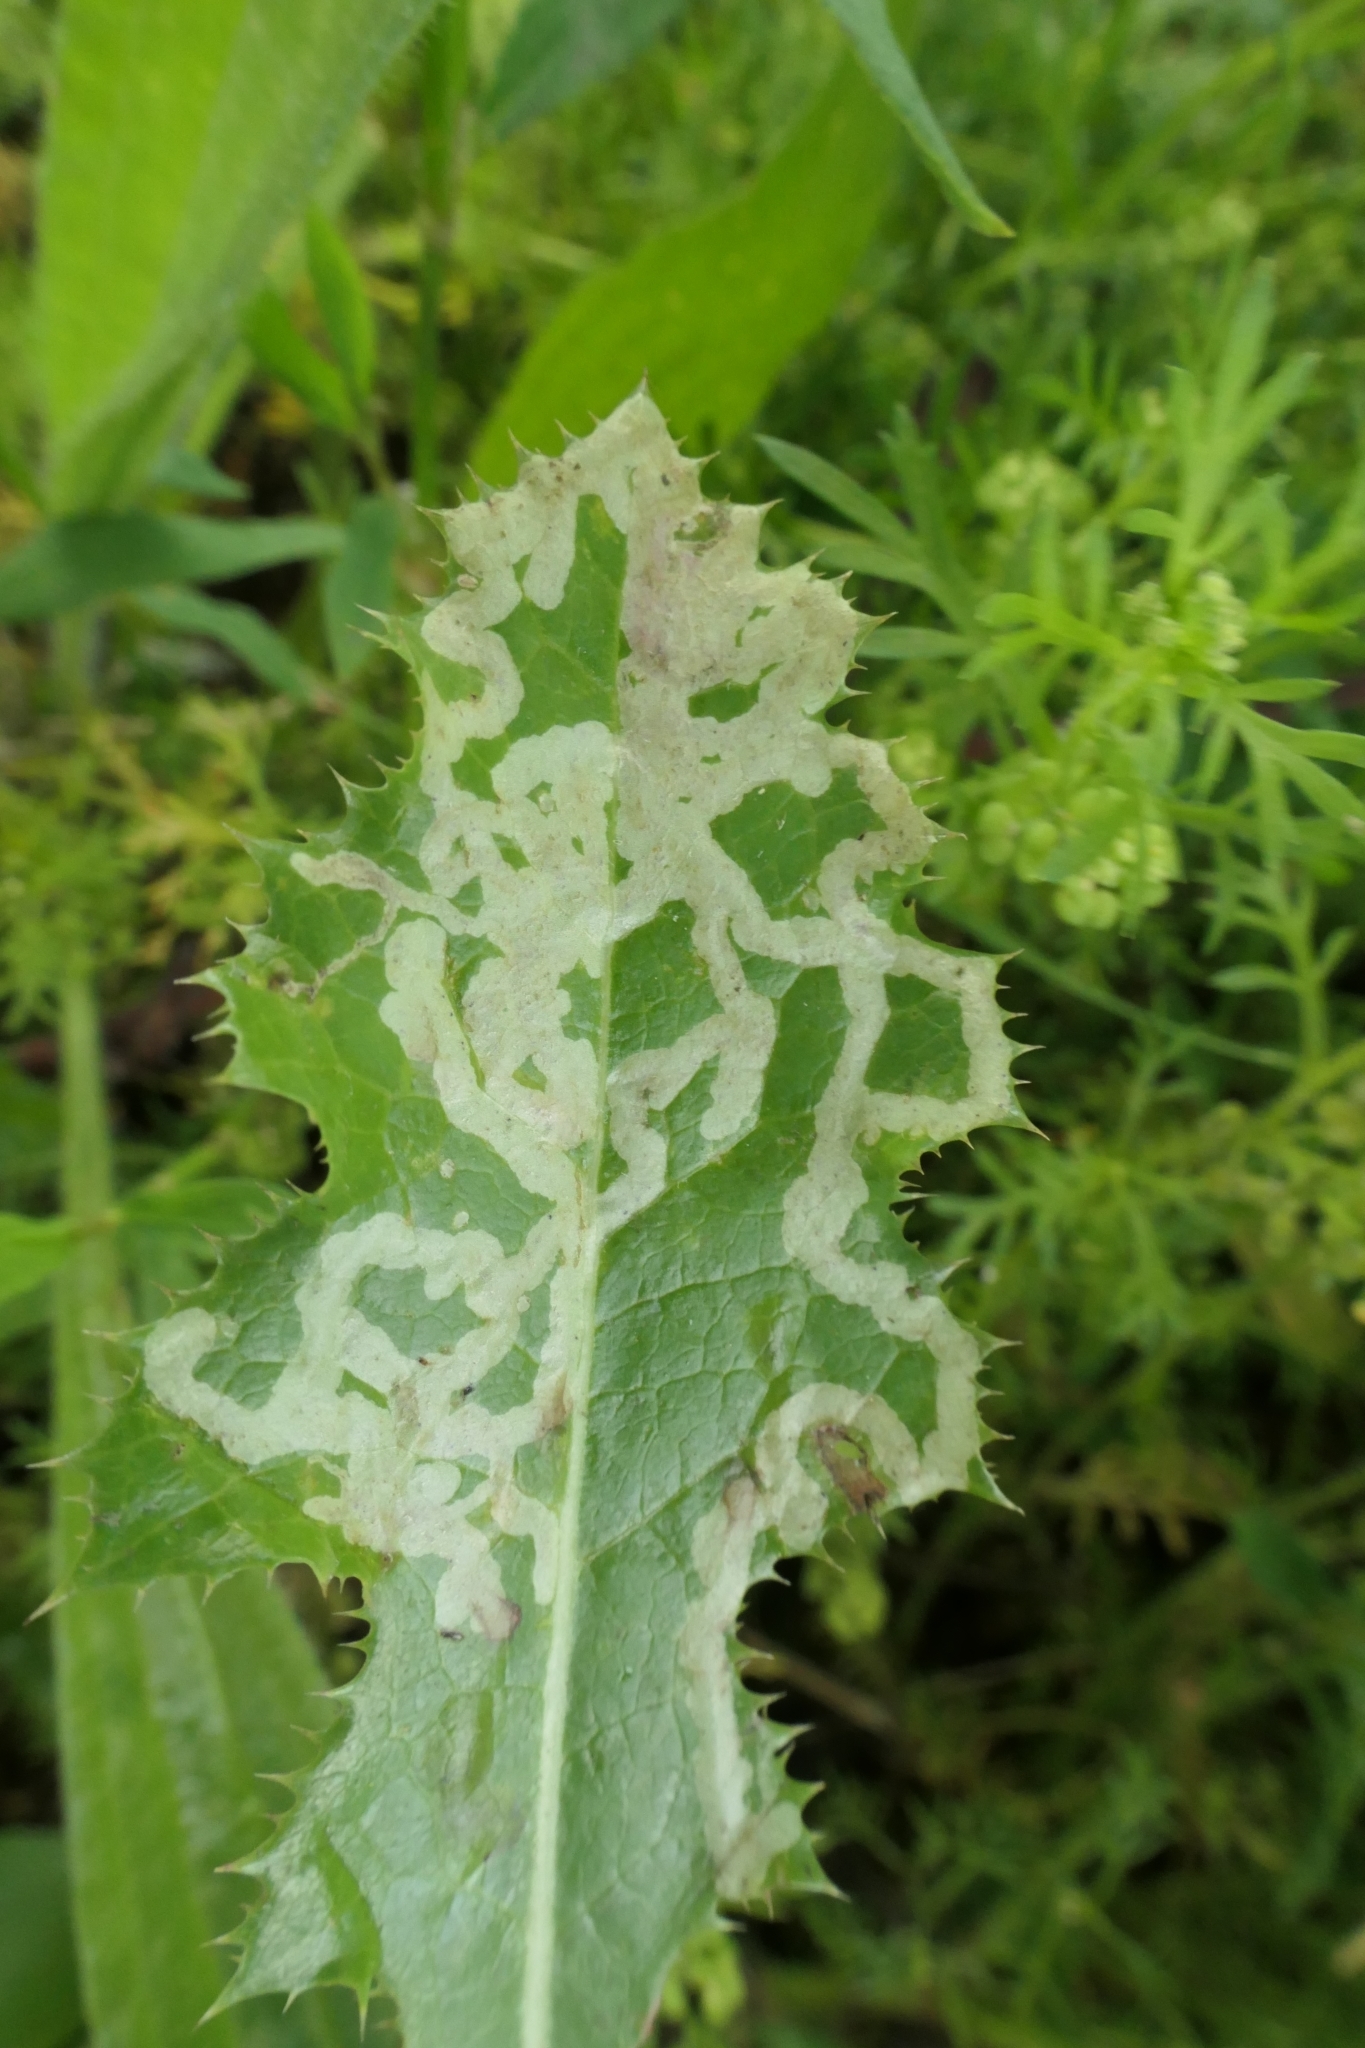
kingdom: Animalia
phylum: Arthropoda
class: Insecta
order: Diptera
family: Agromyzidae
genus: Phytomyza
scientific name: Phytomyza syngenesiae
